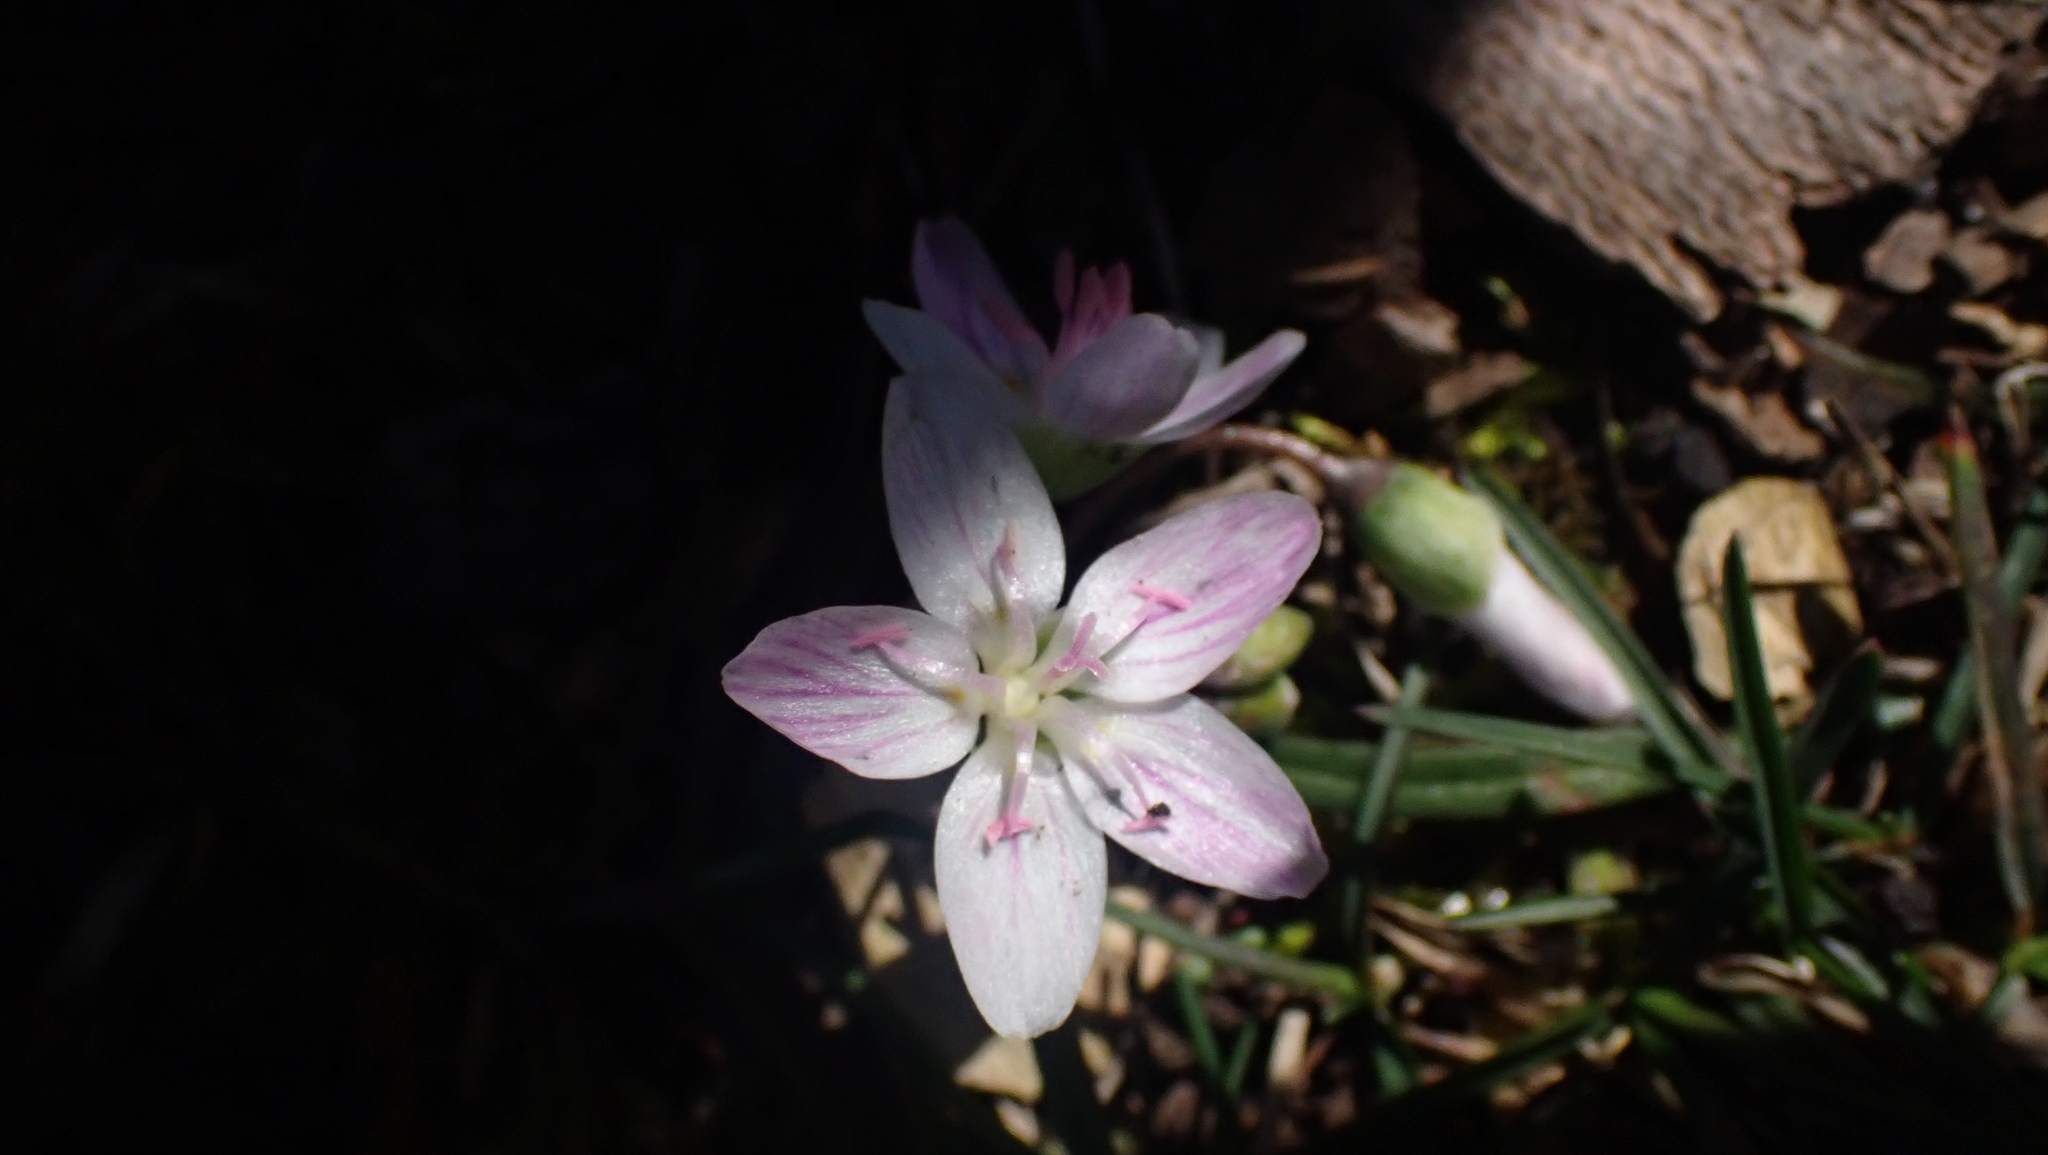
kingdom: Plantae
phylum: Tracheophyta
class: Magnoliopsida
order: Caryophyllales
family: Montiaceae
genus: Claytonia
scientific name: Claytonia virginica
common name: Virginia springbeauty
